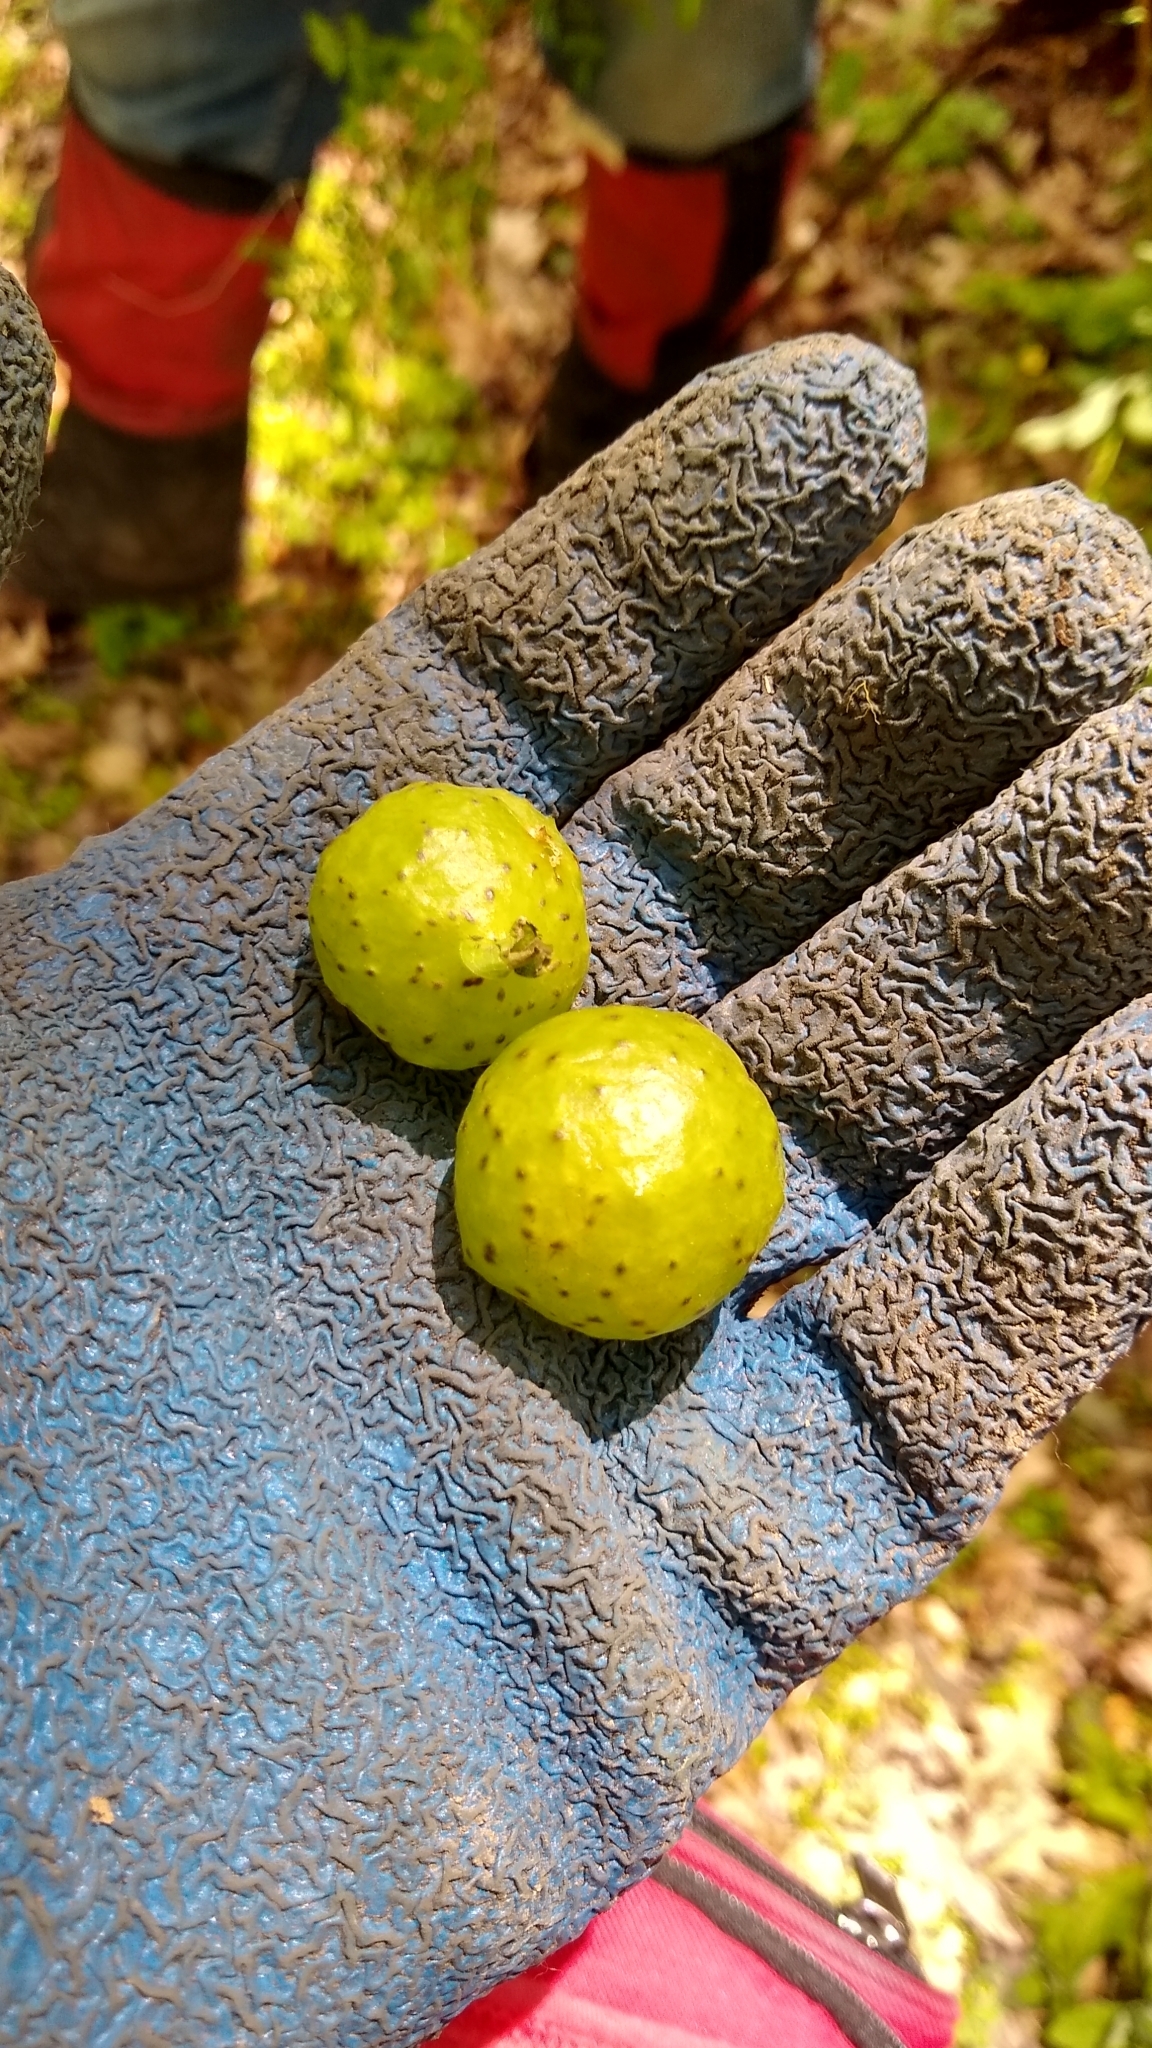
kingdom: Animalia
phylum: Arthropoda
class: Insecta
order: Hymenoptera
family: Cynipidae
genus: Amphibolips
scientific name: Amphibolips
